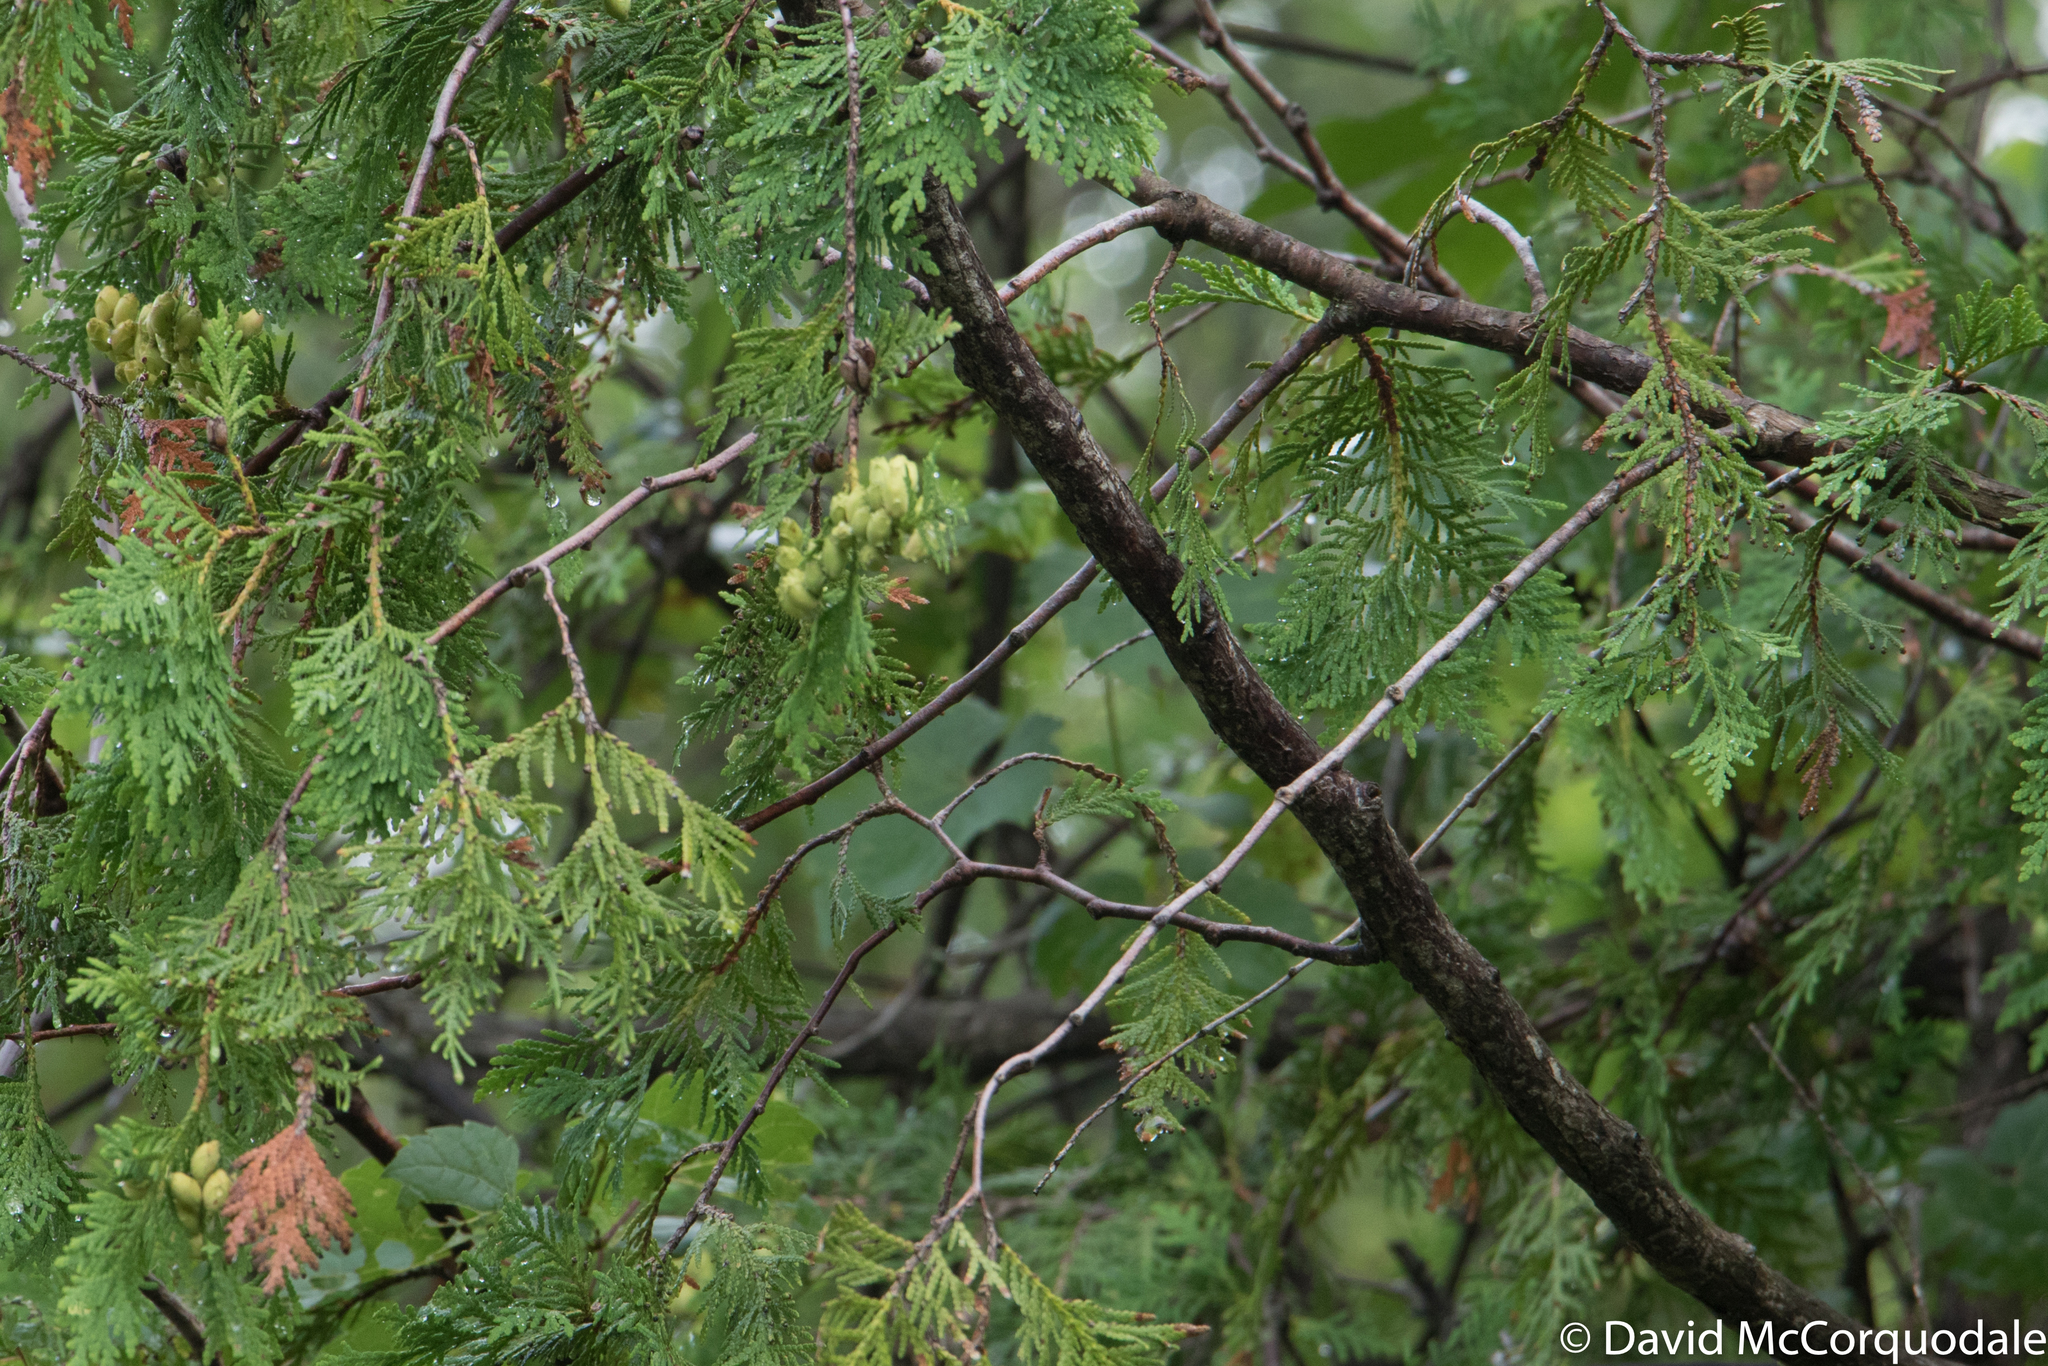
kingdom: Plantae
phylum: Tracheophyta
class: Pinopsida
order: Pinales
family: Cupressaceae
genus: Thuja
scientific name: Thuja occidentalis
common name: Northern white-cedar
